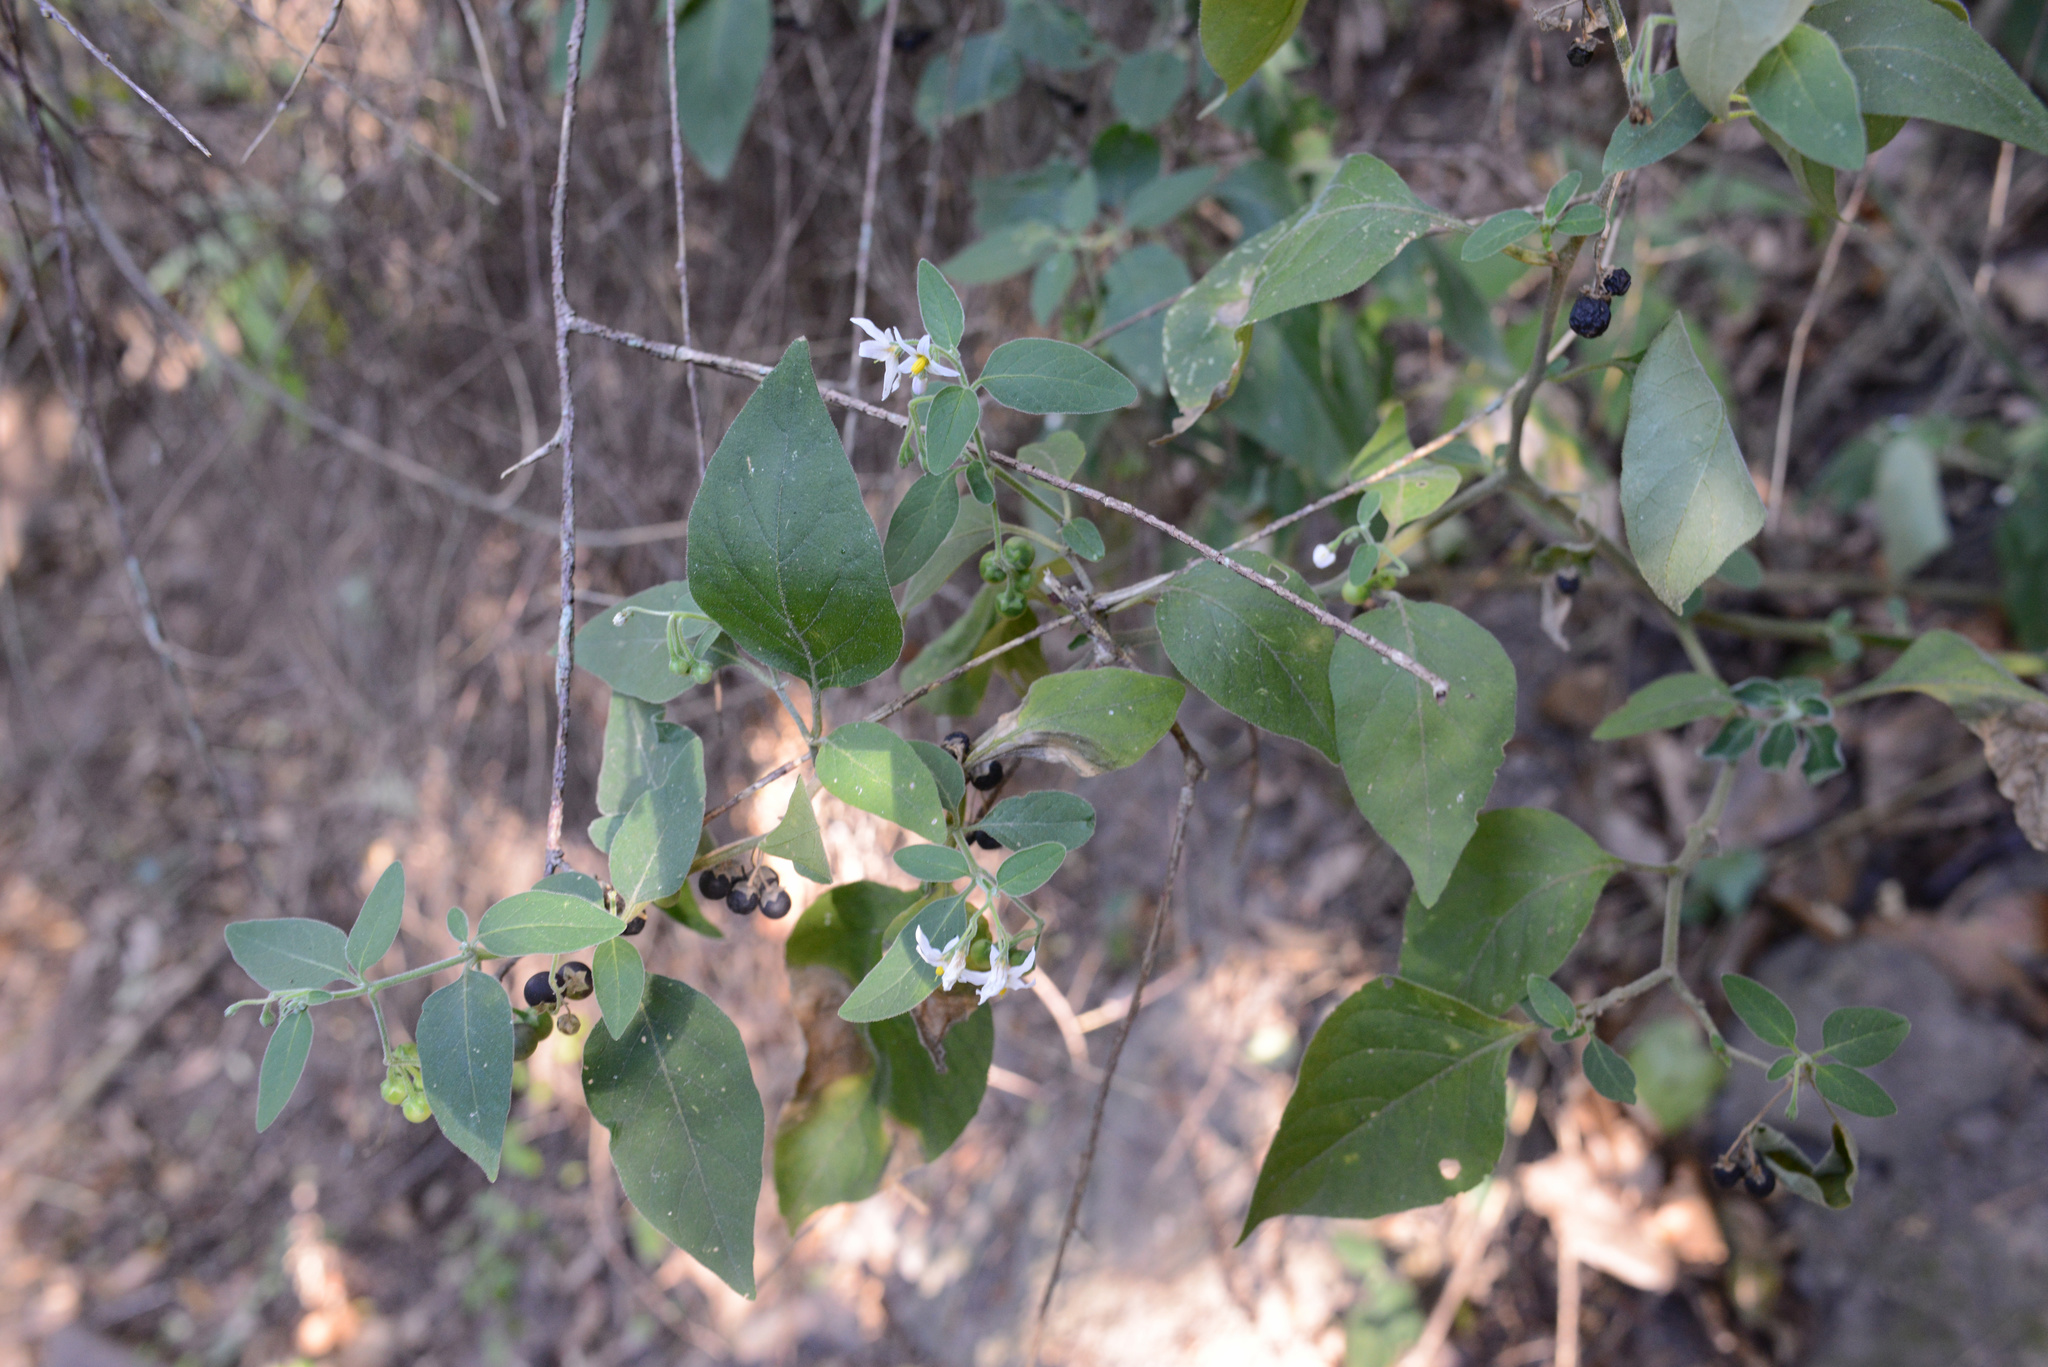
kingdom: Plantae
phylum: Tracheophyta
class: Magnoliopsida
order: Solanales
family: Solanaceae
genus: Solanum
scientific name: Solanum chenopodioides
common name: Tall nightshade
